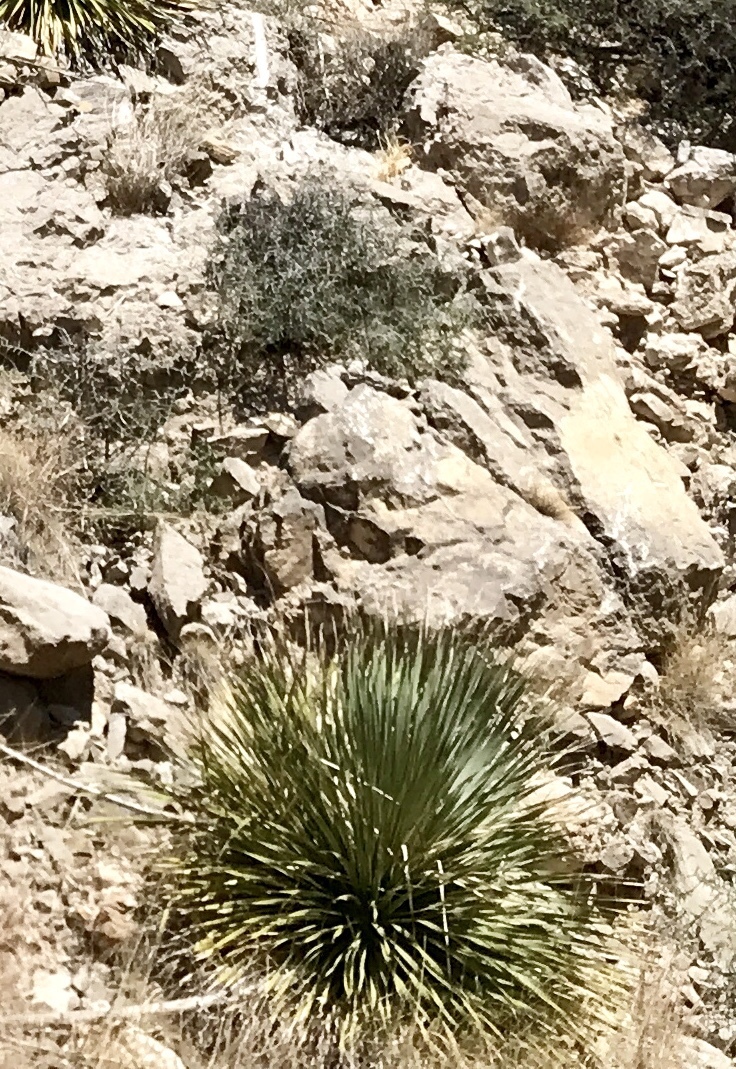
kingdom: Plantae
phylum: Tracheophyta
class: Liliopsida
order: Asparagales
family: Asparagaceae
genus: Dasylirion
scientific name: Dasylirion wheeleri
